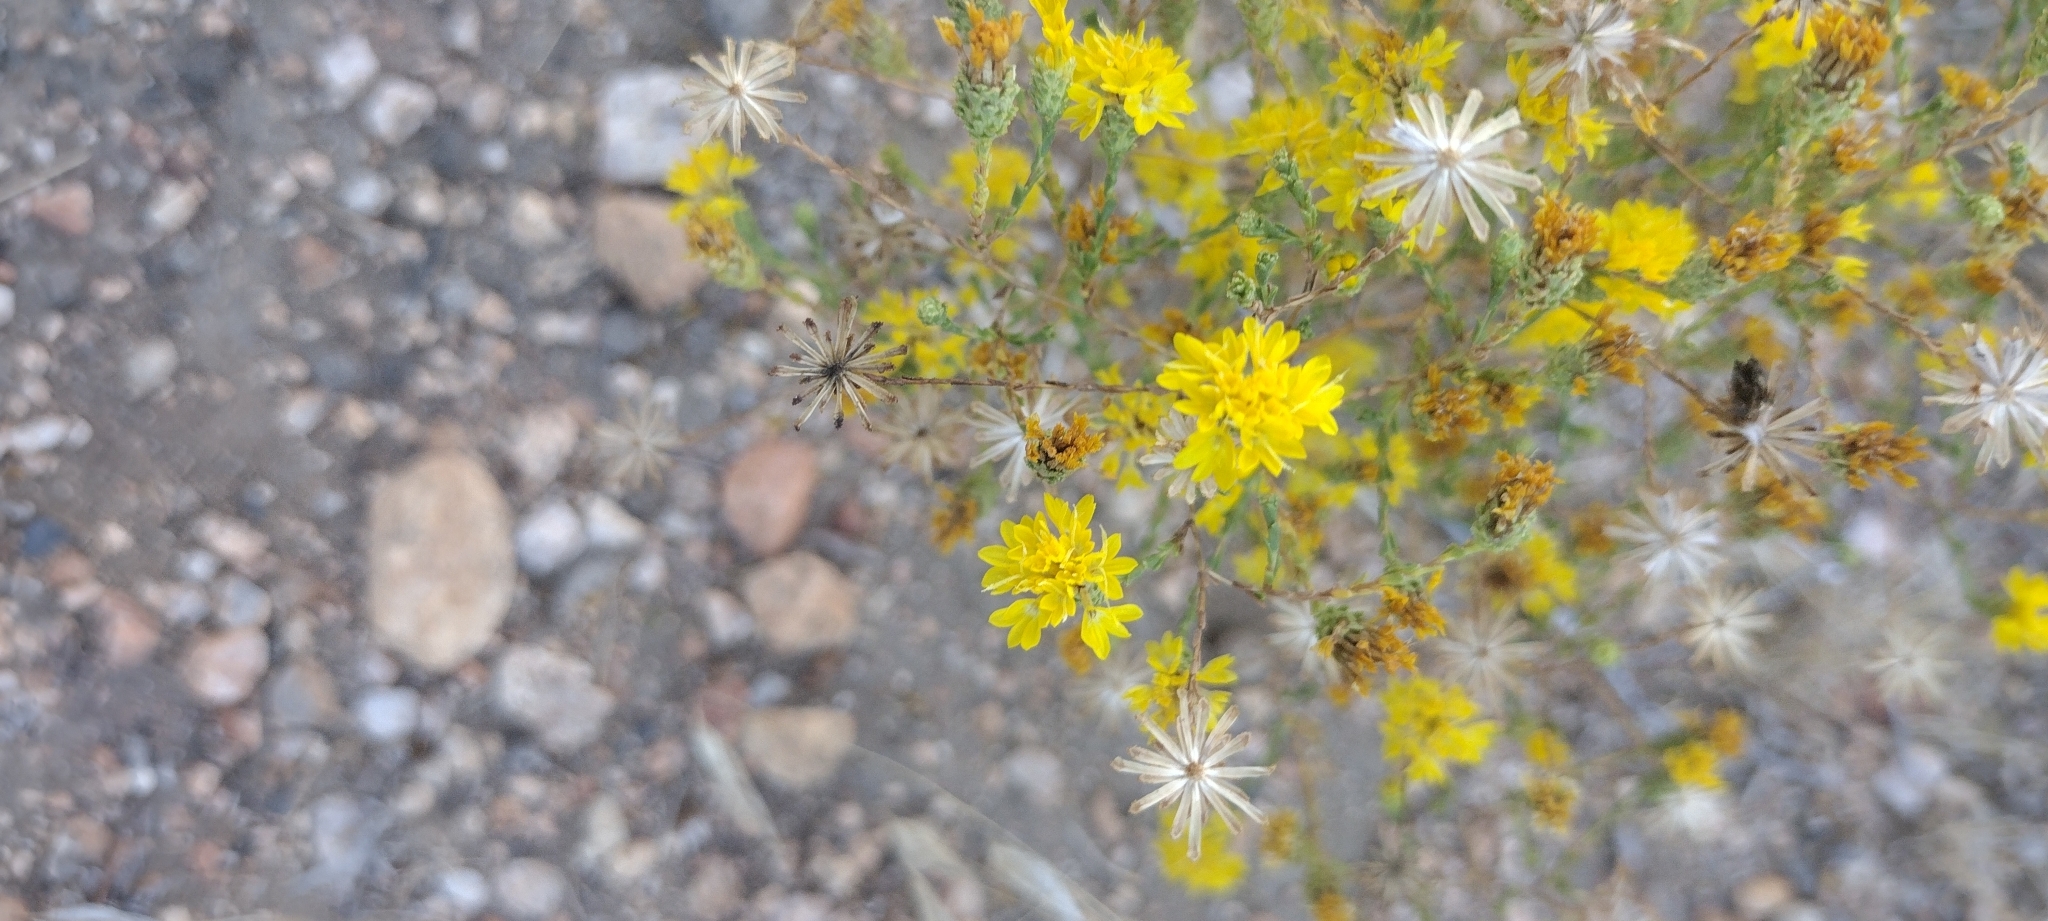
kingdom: Plantae
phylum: Tracheophyta
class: Magnoliopsida
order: Asterales
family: Asteraceae
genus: Lessingia
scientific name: Lessingia glandulifera
